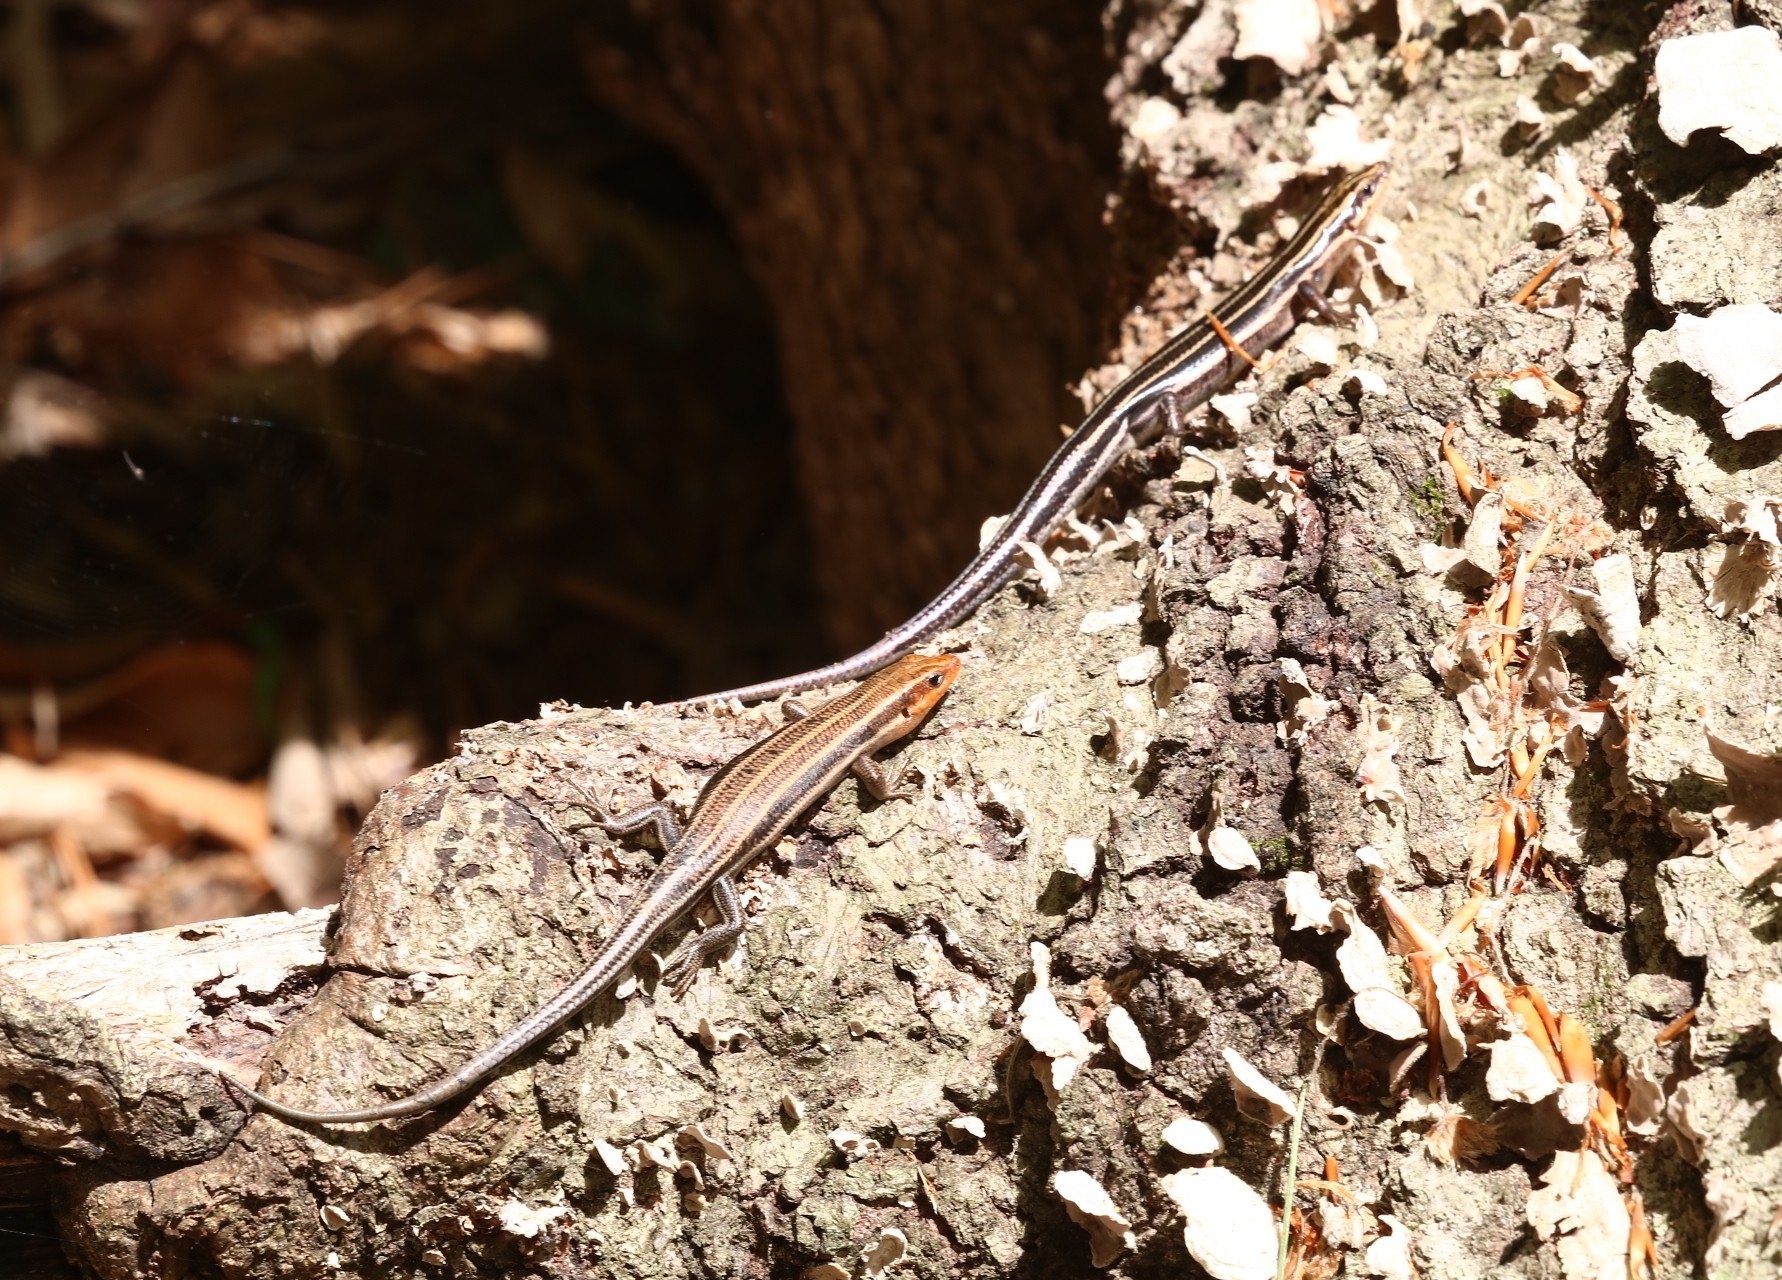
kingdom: Animalia
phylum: Chordata
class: Squamata
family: Scincidae
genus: Plestiodon
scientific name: Plestiodon fasciatus
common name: Five-lined skink
